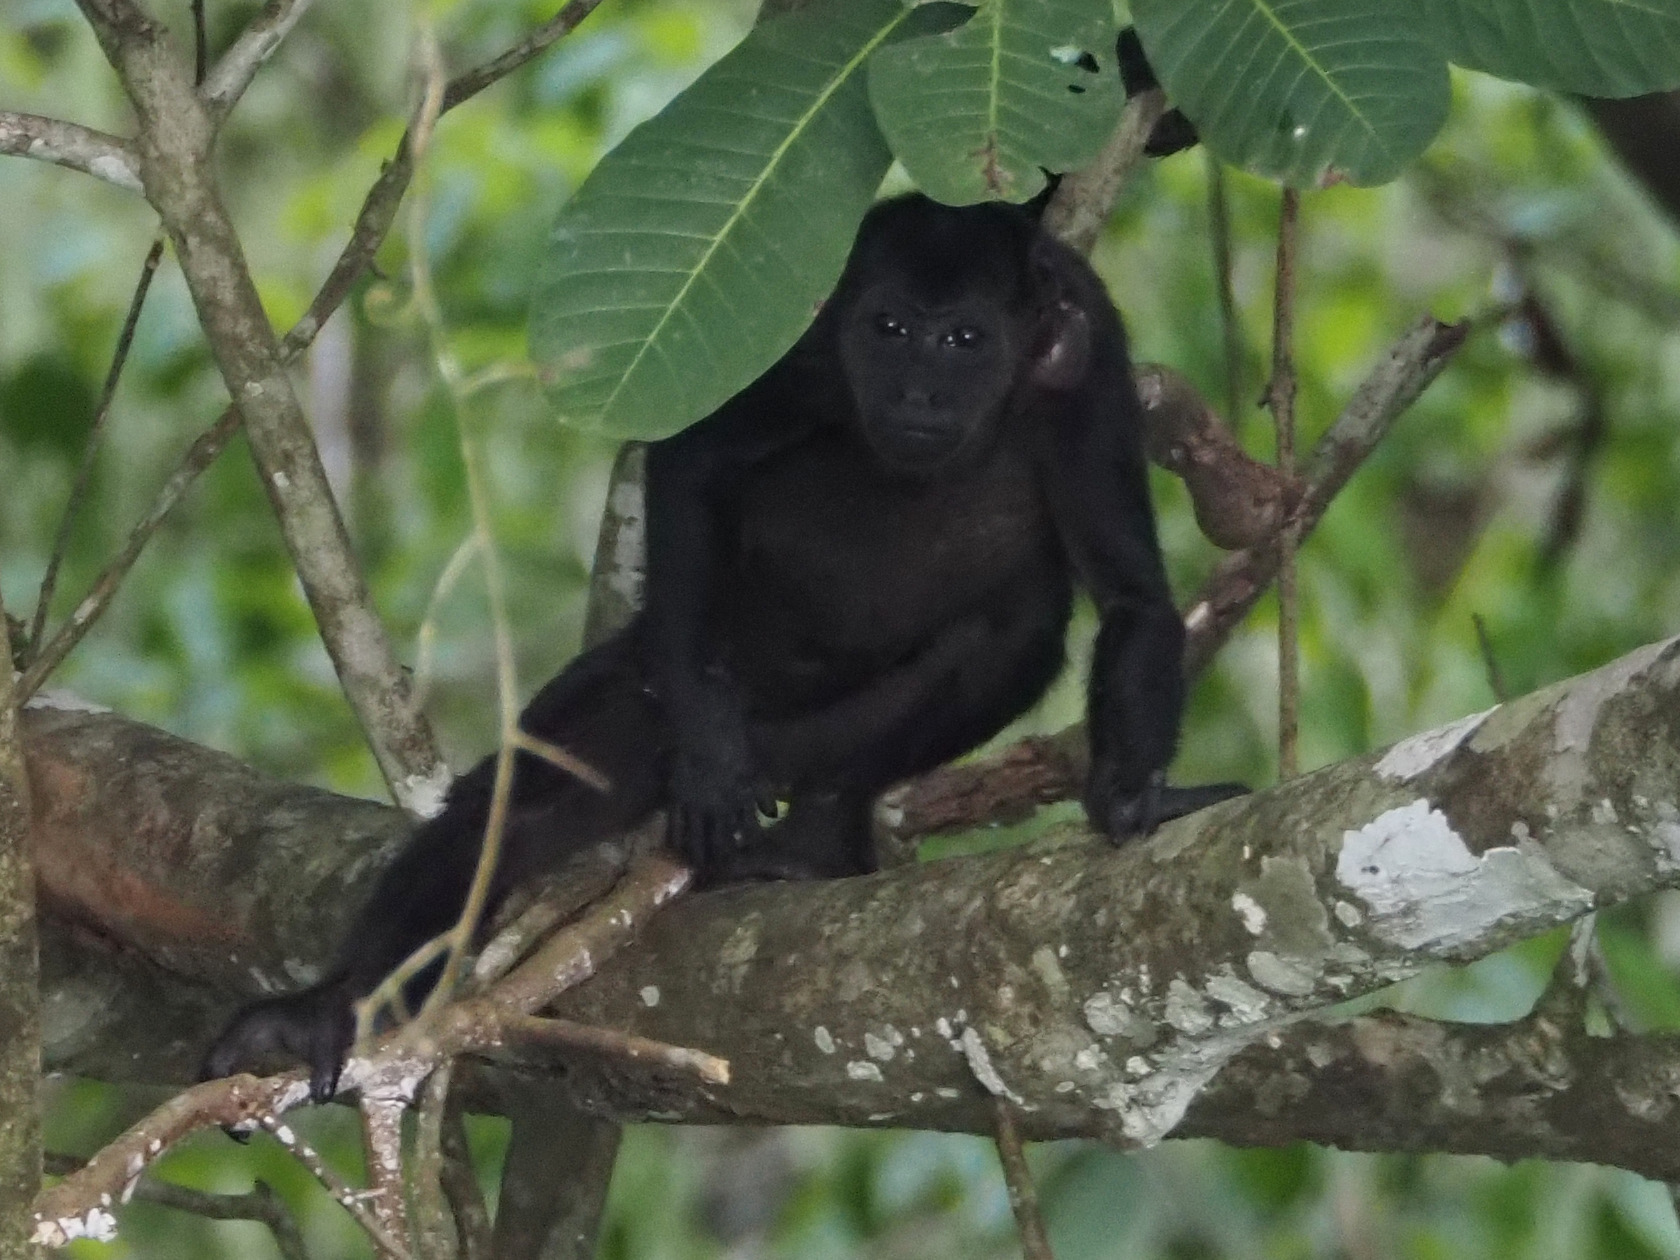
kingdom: Animalia
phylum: Chordata
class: Mammalia
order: Primates
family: Atelidae
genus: Alouatta
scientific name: Alouatta palliata
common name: Mantled howler
